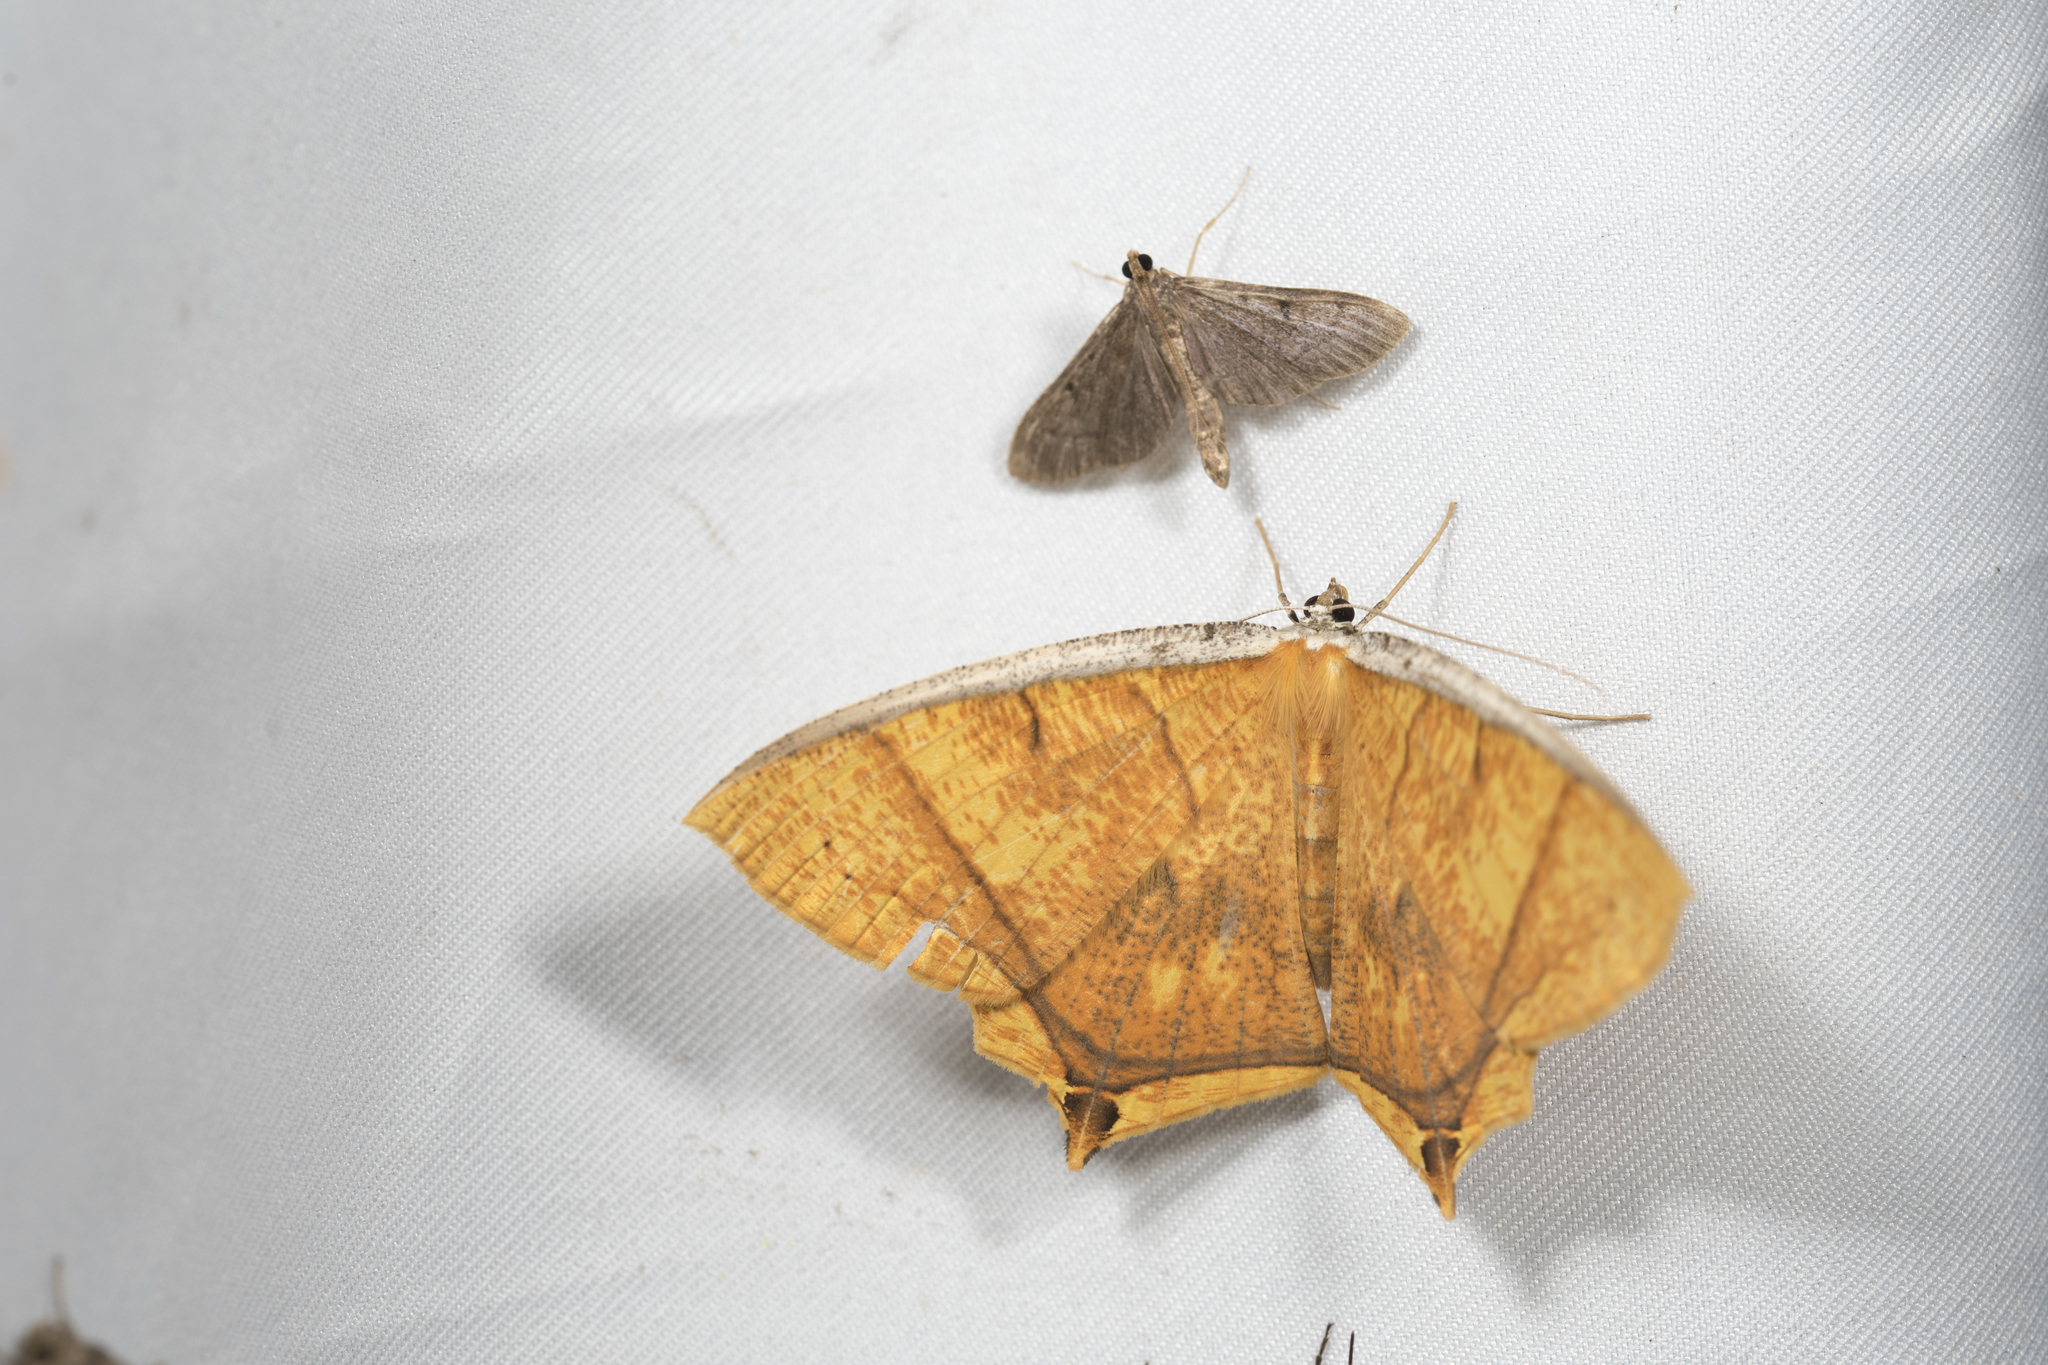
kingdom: Animalia
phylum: Arthropoda
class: Insecta
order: Lepidoptera
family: Geometridae
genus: Thinopteryx
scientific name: Thinopteryx crocoptera
